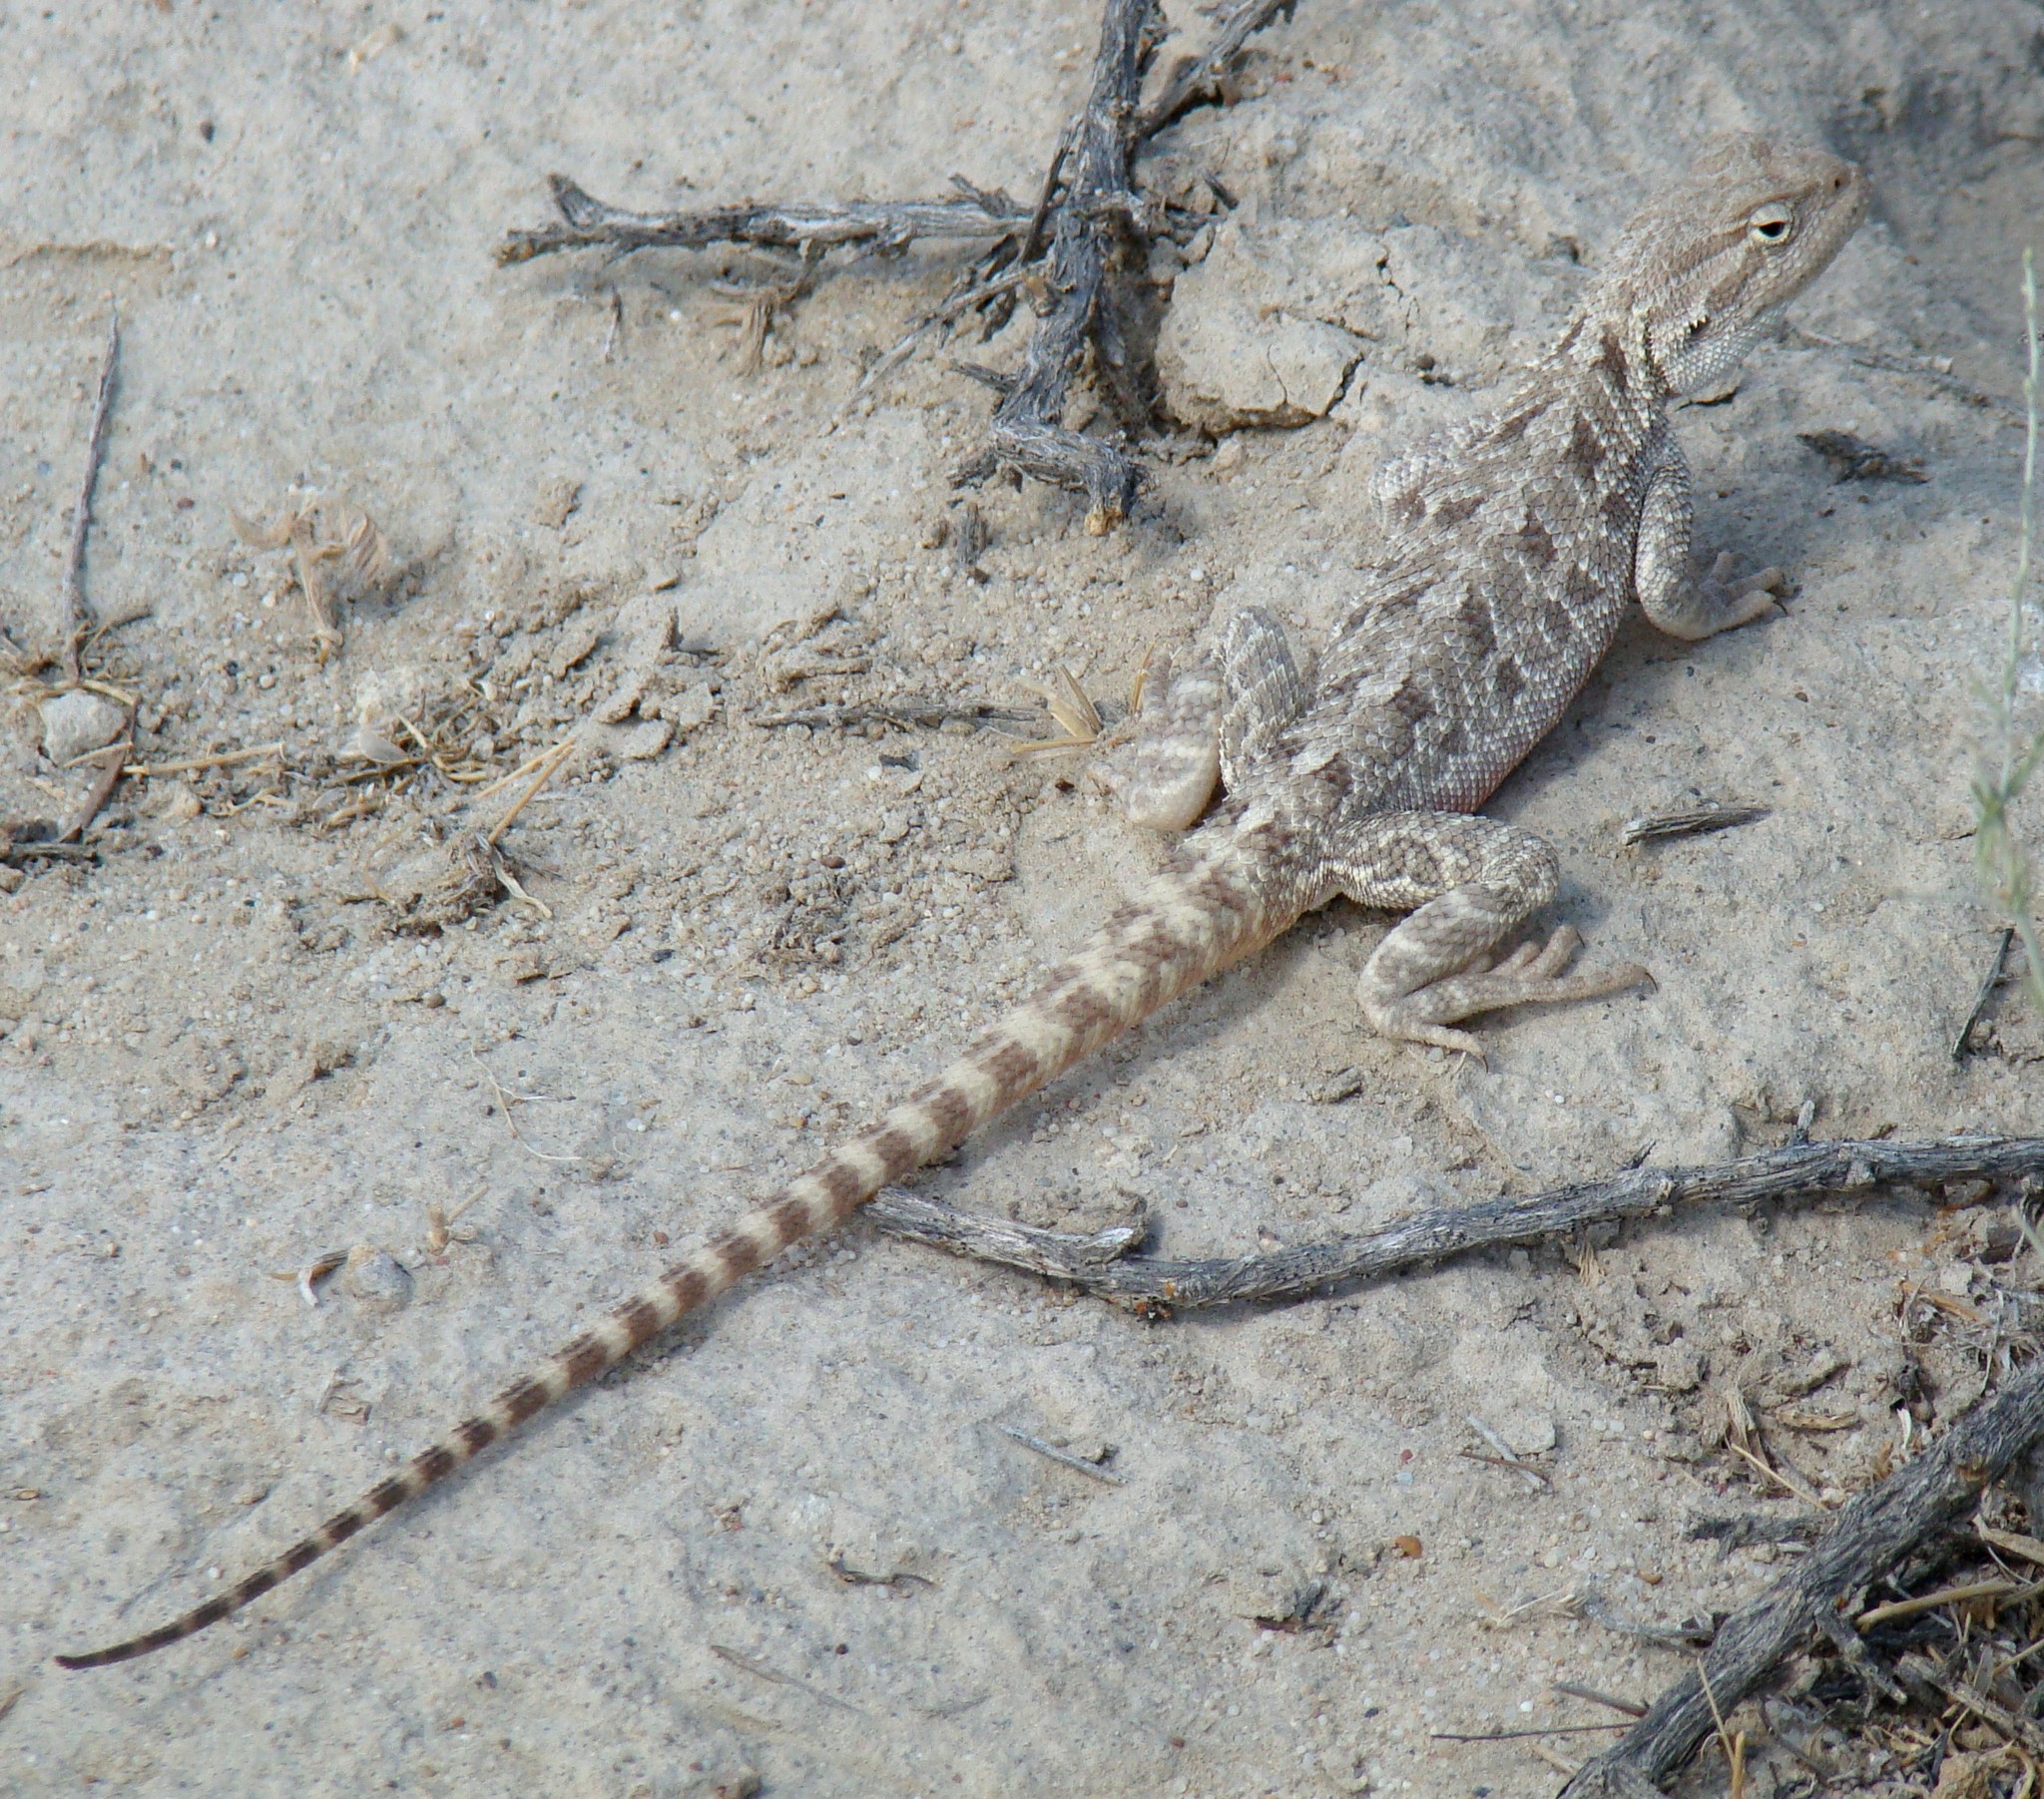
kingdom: Animalia
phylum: Chordata
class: Squamata
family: Agamidae
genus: Trapelus
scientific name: Trapelus sanguinolentus
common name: Steppe agama
